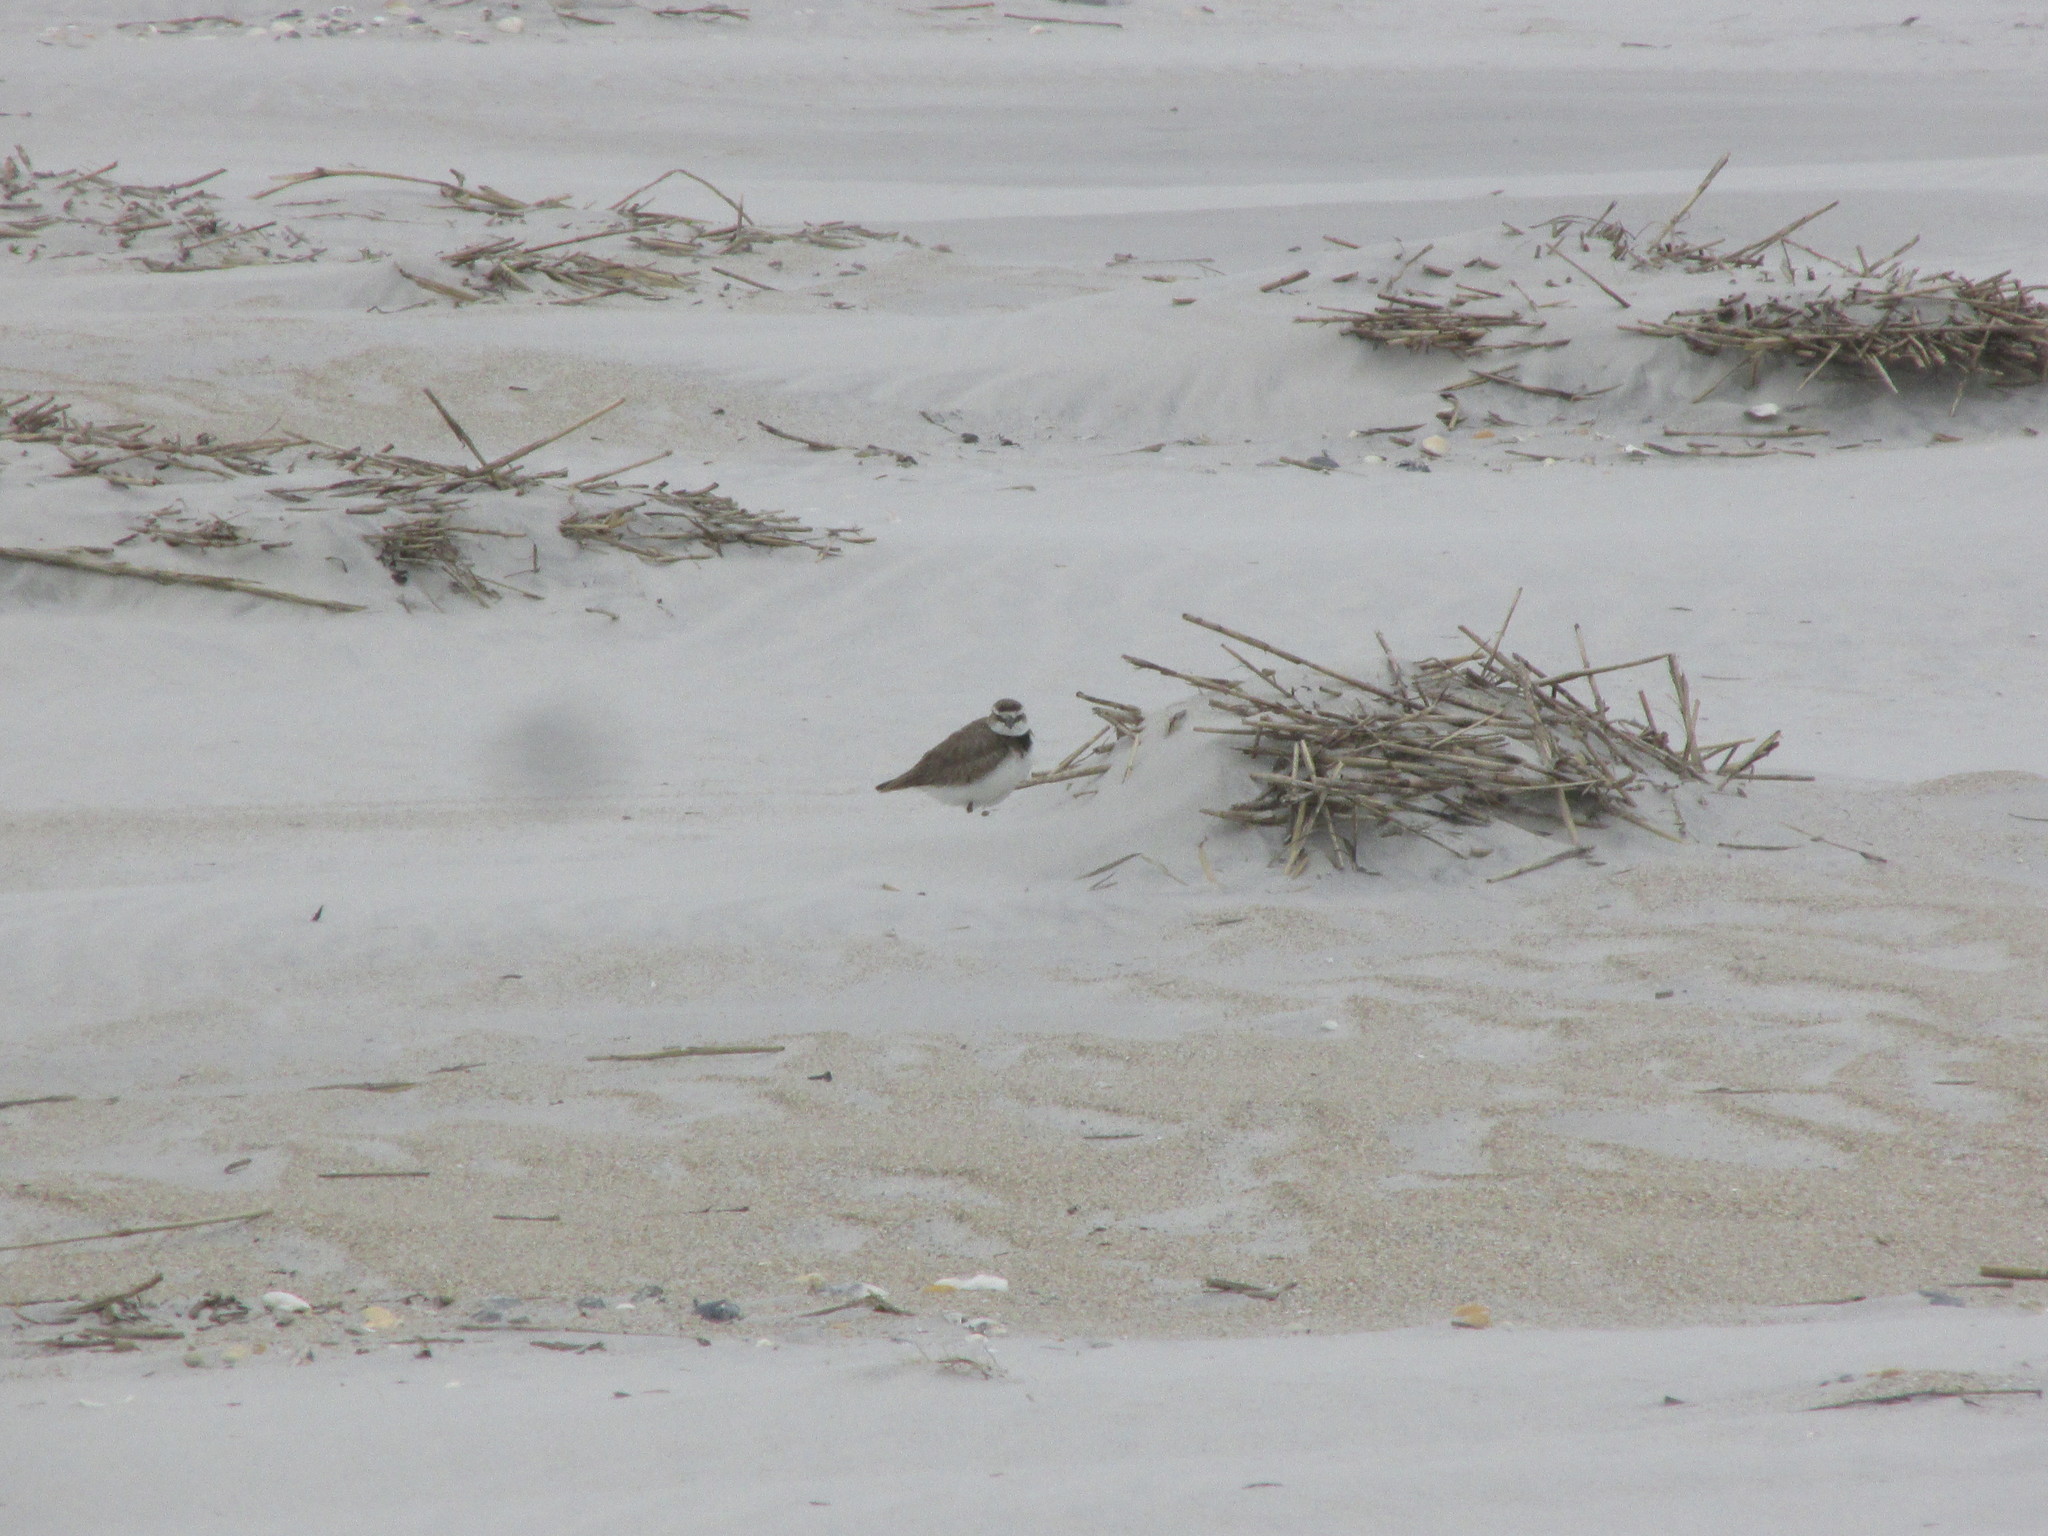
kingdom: Animalia
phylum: Chordata
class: Aves
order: Charadriiformes
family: Charadriidae
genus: Anarhynchus
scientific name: Anarhynchus
